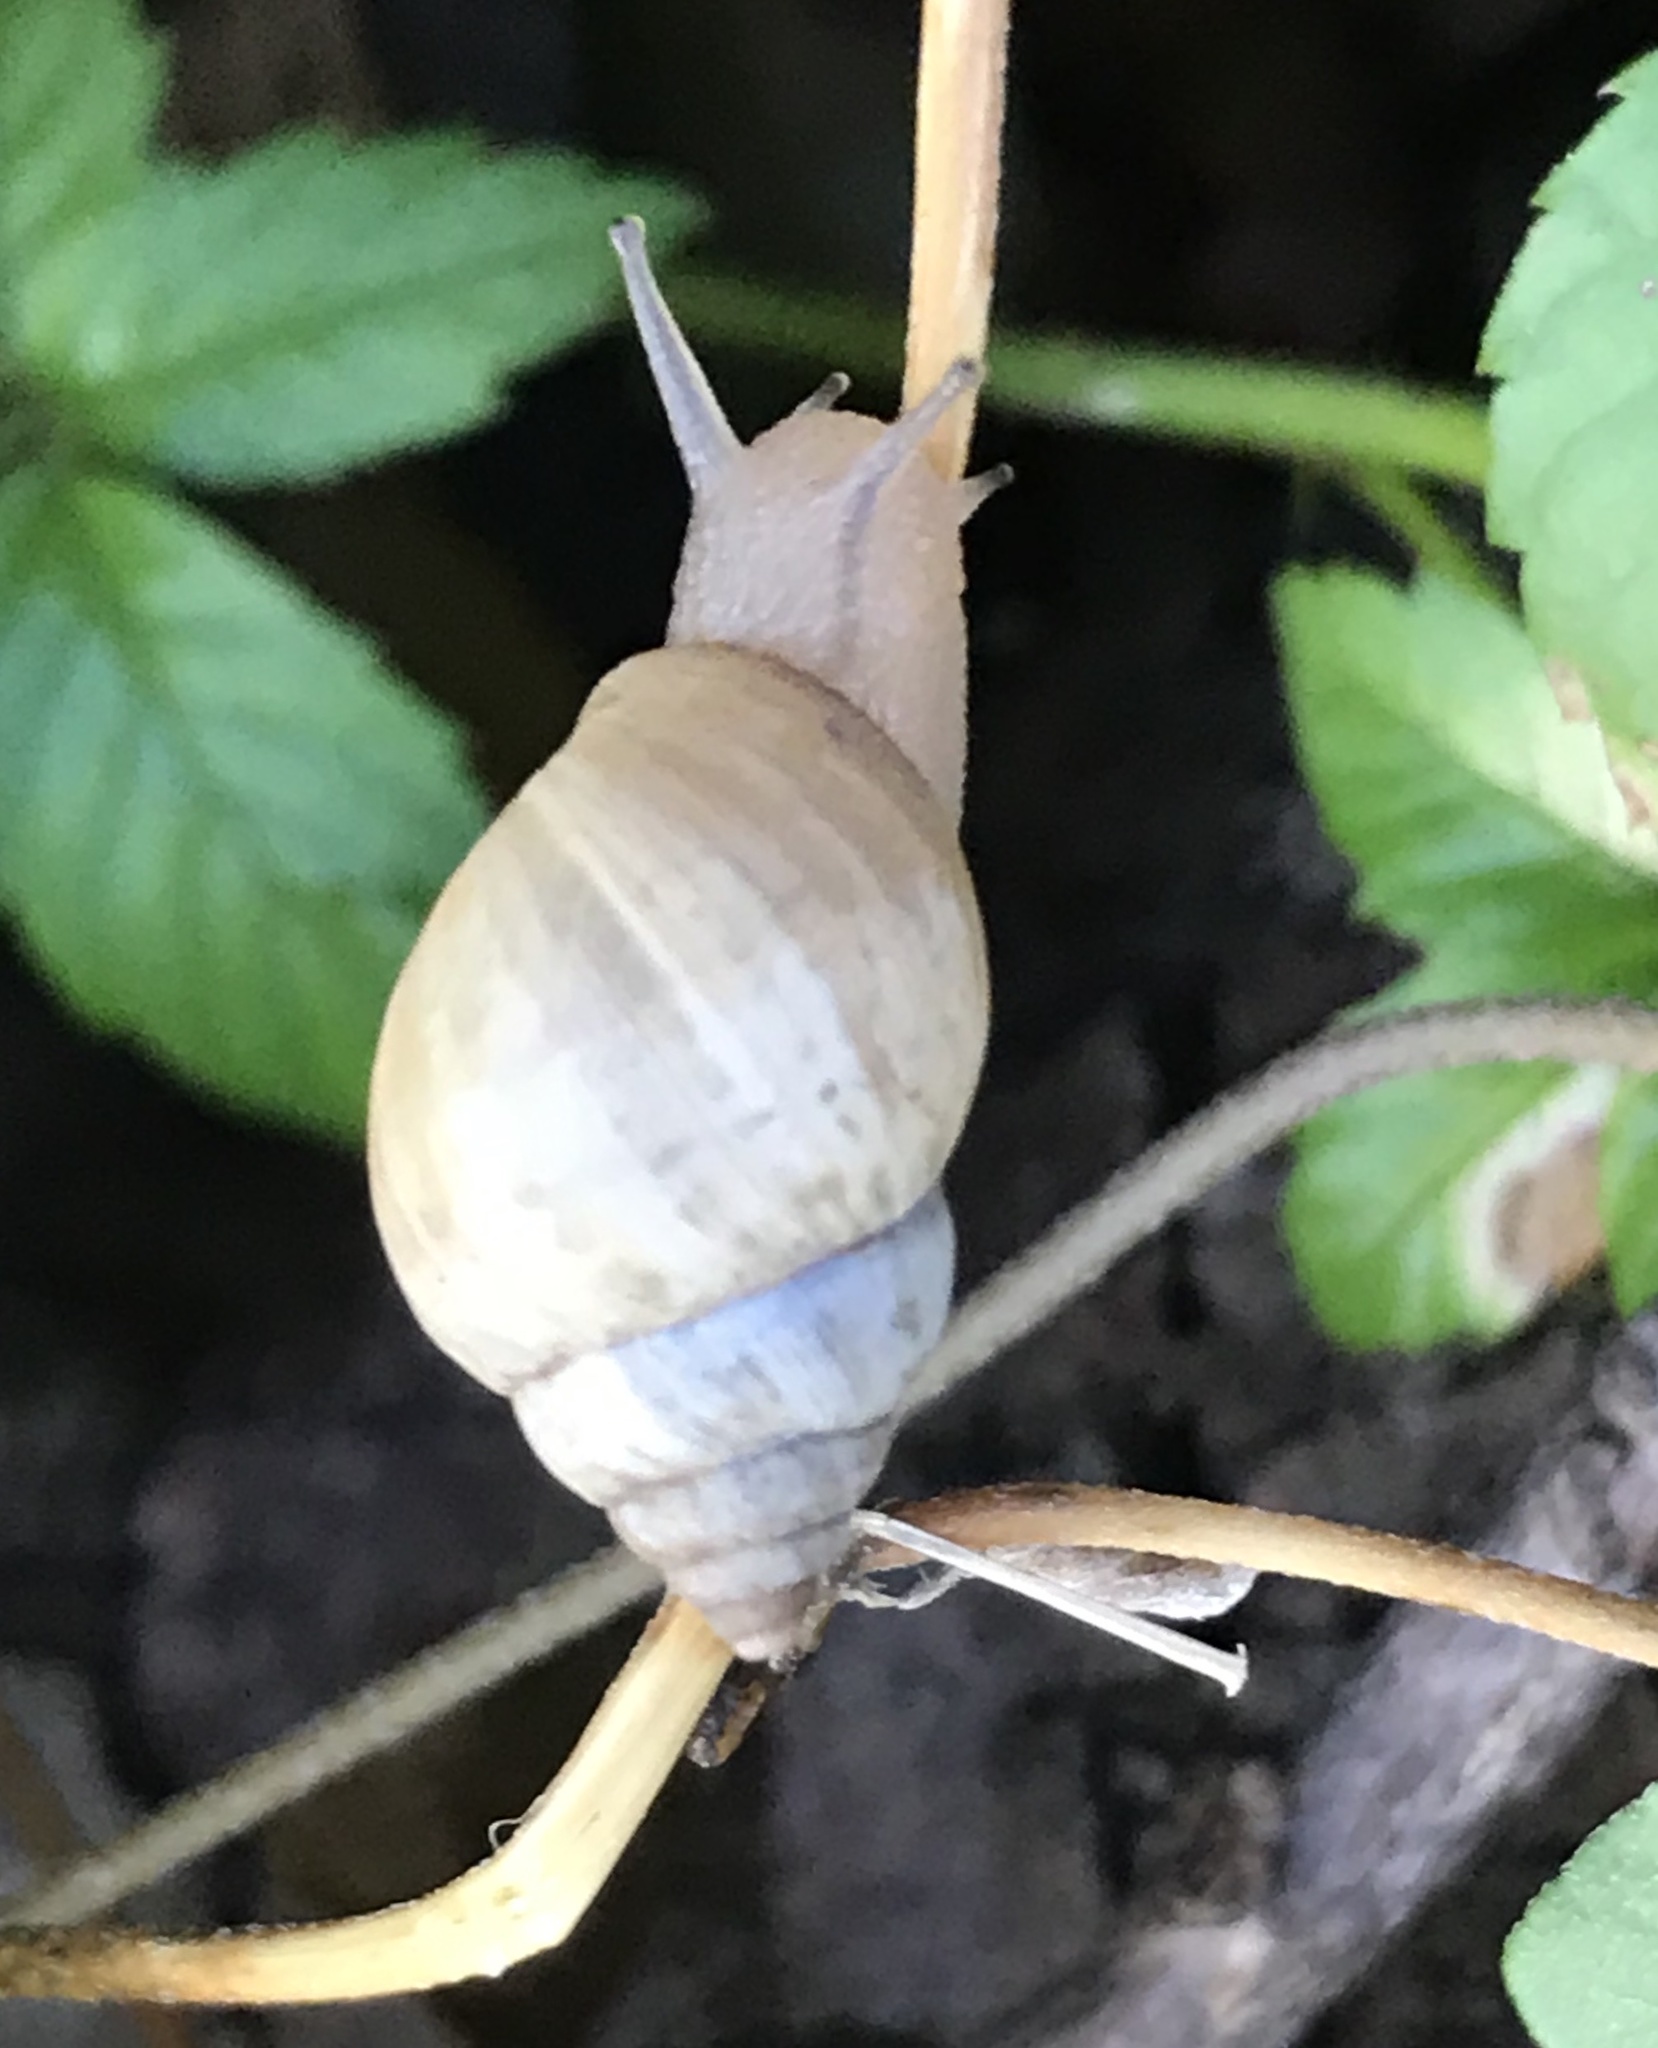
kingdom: Animalia
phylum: Mollusca
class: Gastropoda
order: Stylommatophora
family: Bulimulidae
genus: Rabdotus
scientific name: Rabdotus mooreanus
